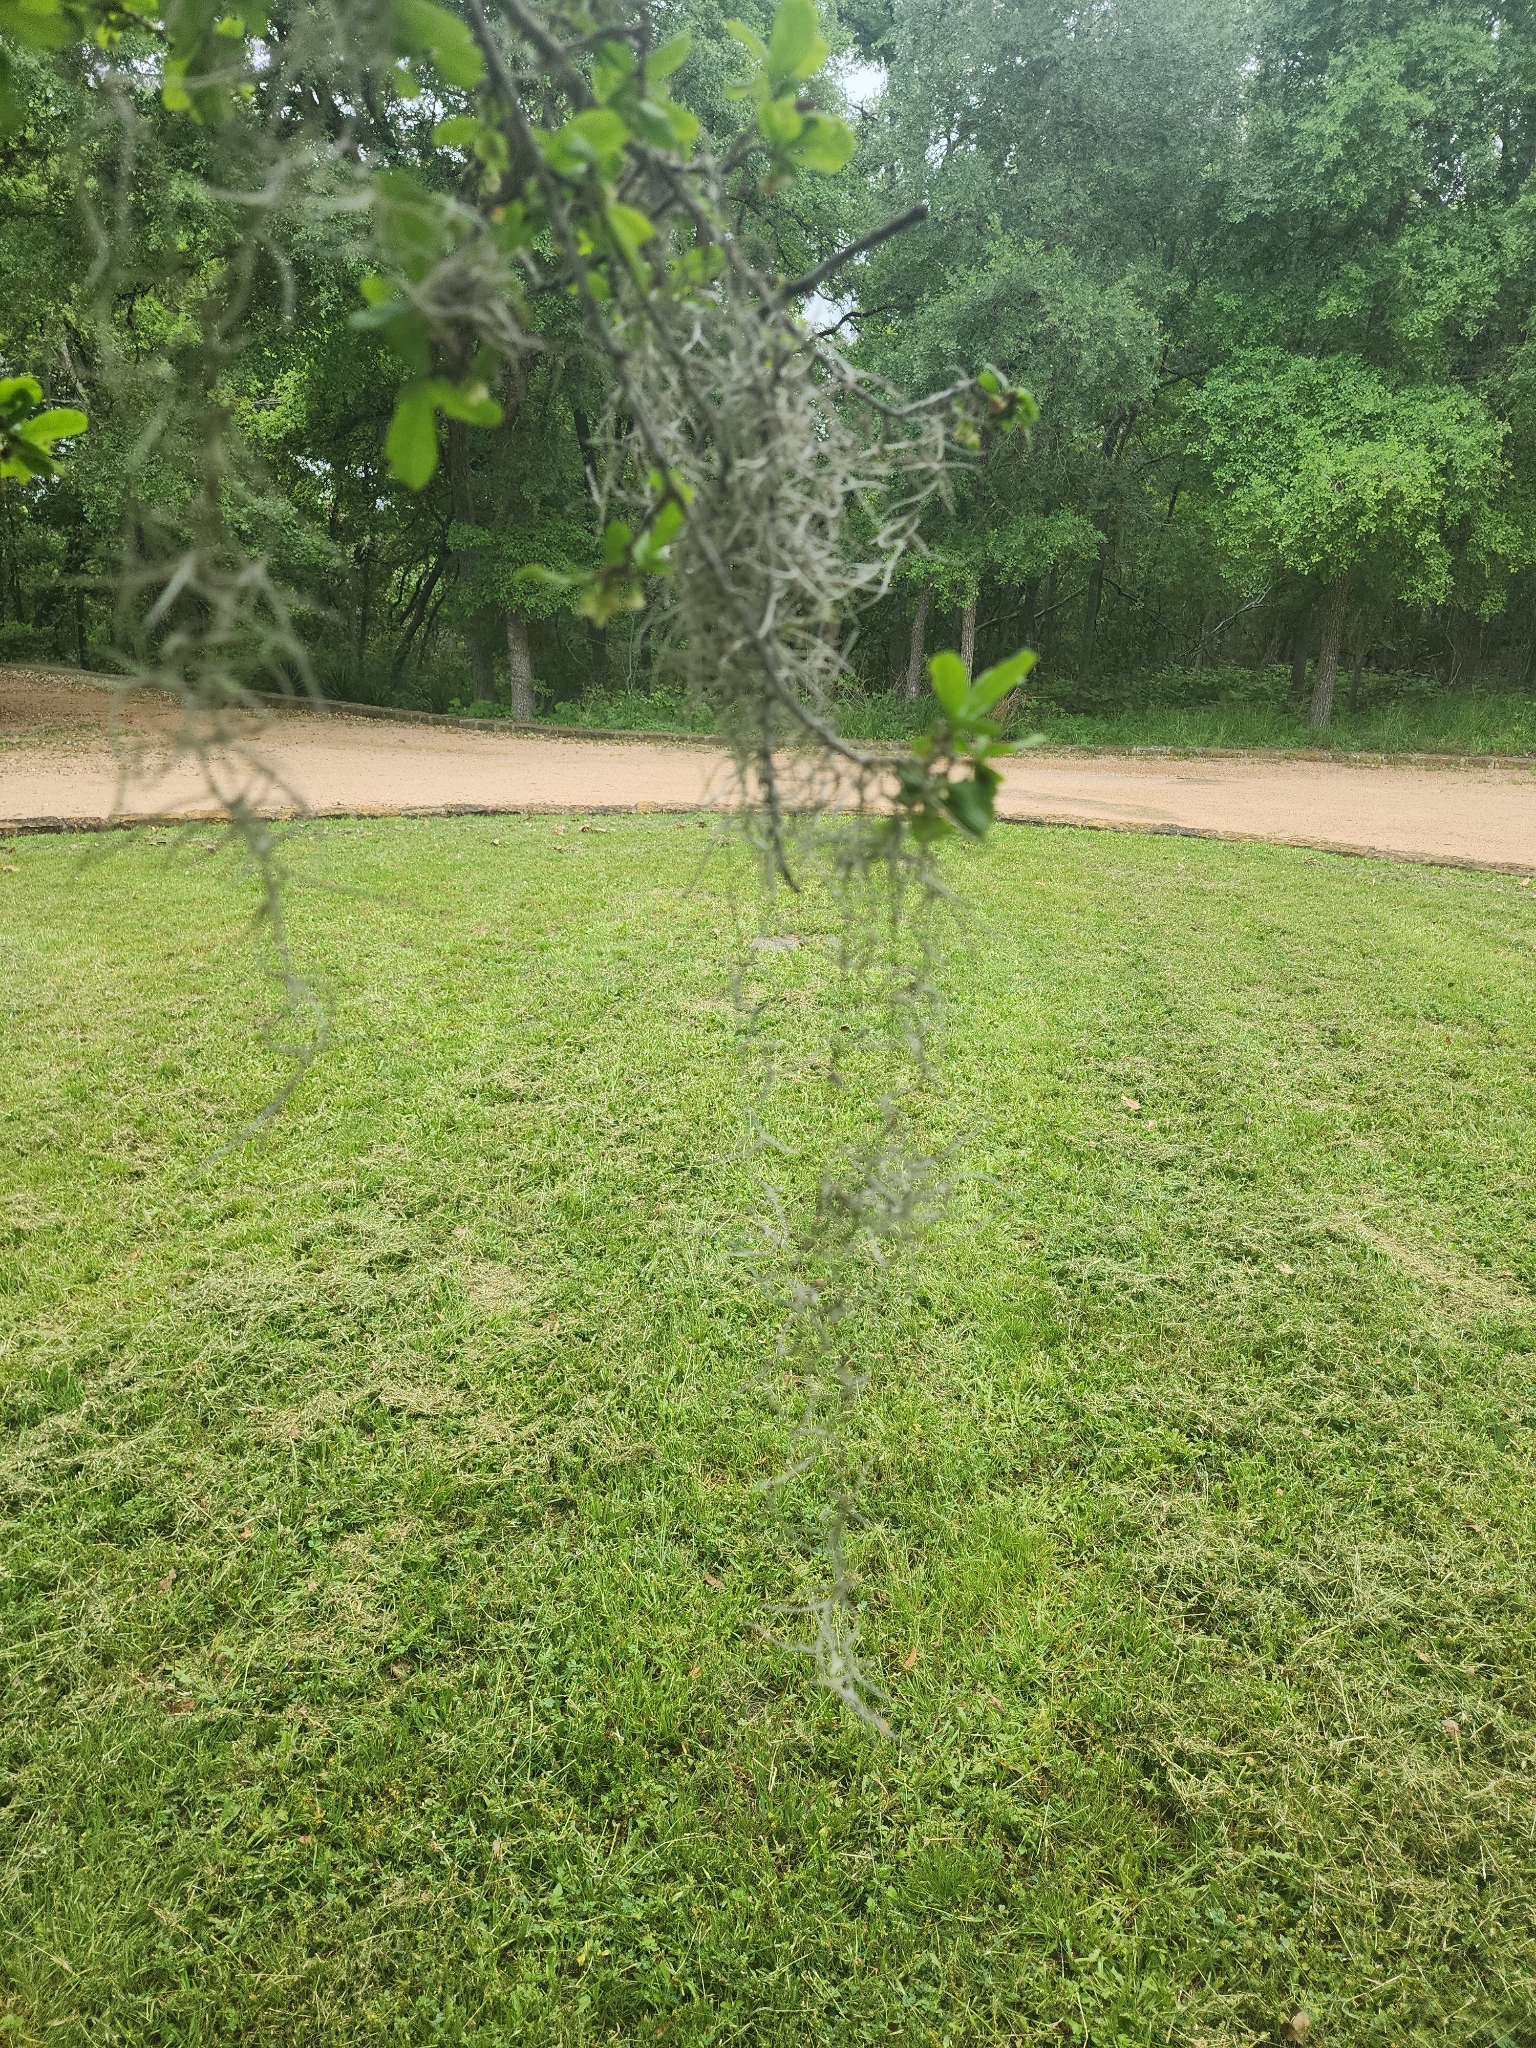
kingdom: Plantae
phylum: Tracheophyta
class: Liliopsida
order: Poales
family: Bromeliaceae
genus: Tillandsia
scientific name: Tillandsia usneoides
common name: Spanish moss
